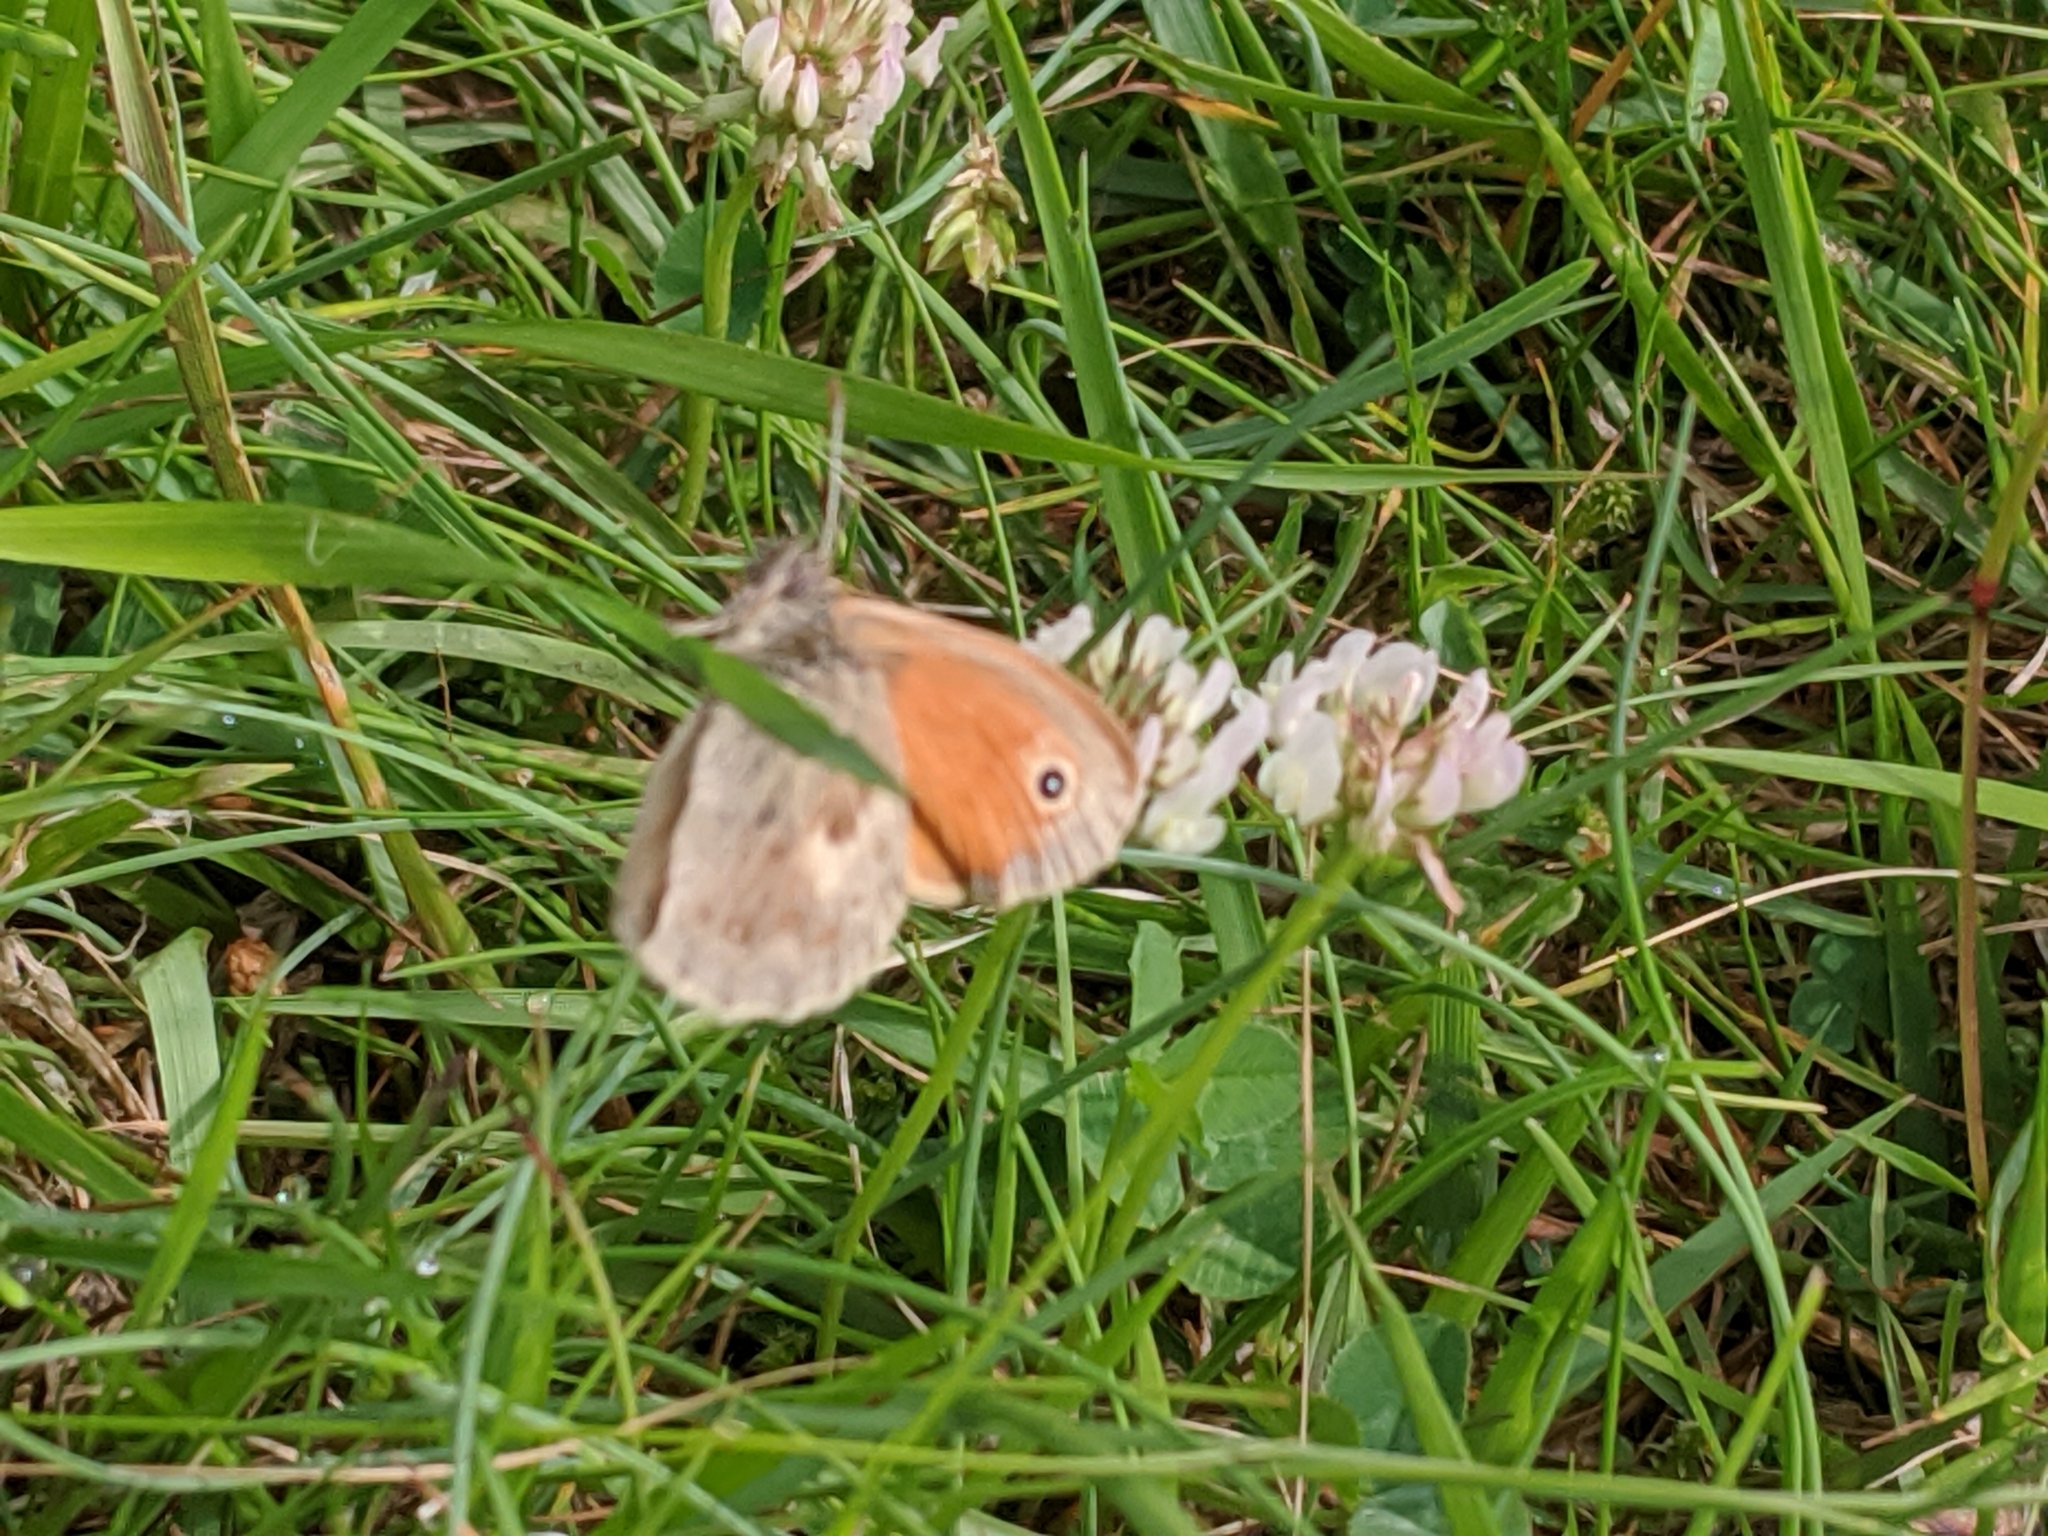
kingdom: Animalia
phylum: Arthropoda
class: Insecta
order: Lepidoptera
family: Nymphalidae
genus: Coenonympha
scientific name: Coenonympha pamphilus
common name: Small heath
